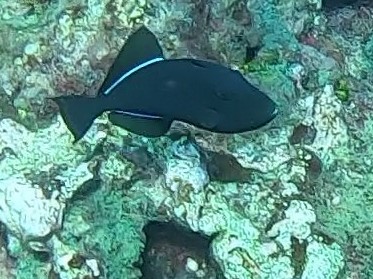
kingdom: Animalia
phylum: Chordata
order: Tetraodontiformes
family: Balistidae
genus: Melichthys
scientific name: Melichthys niger
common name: Black durgon
